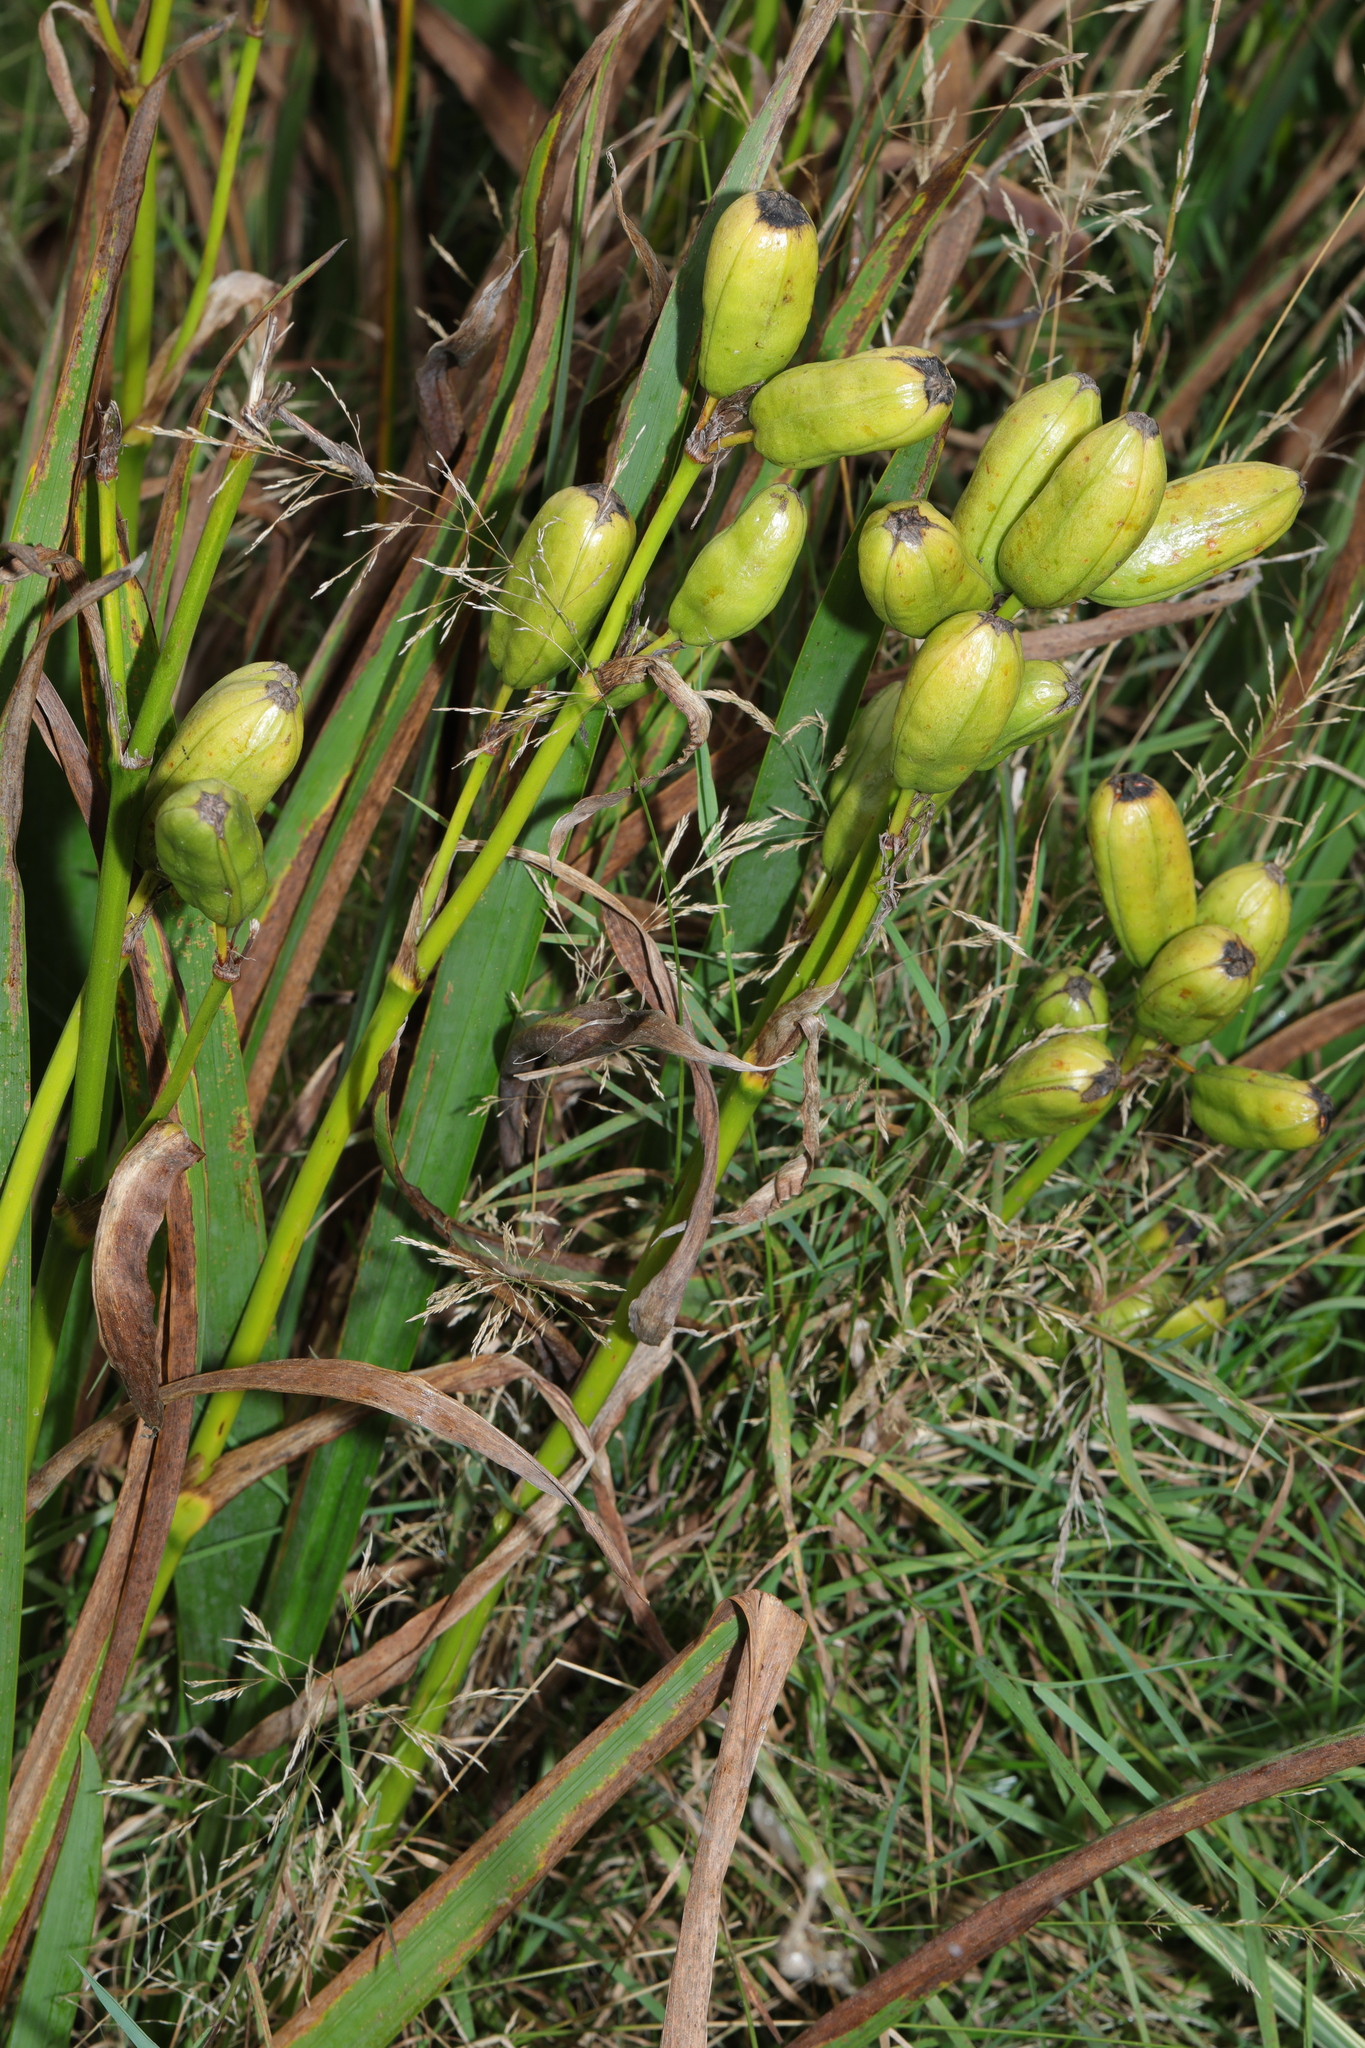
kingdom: Plantae
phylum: Tracheophyta
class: Liliopsida
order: Asparagales
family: Iridaceae
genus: Iris
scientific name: Iris pseudacorus
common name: Yellow flag
